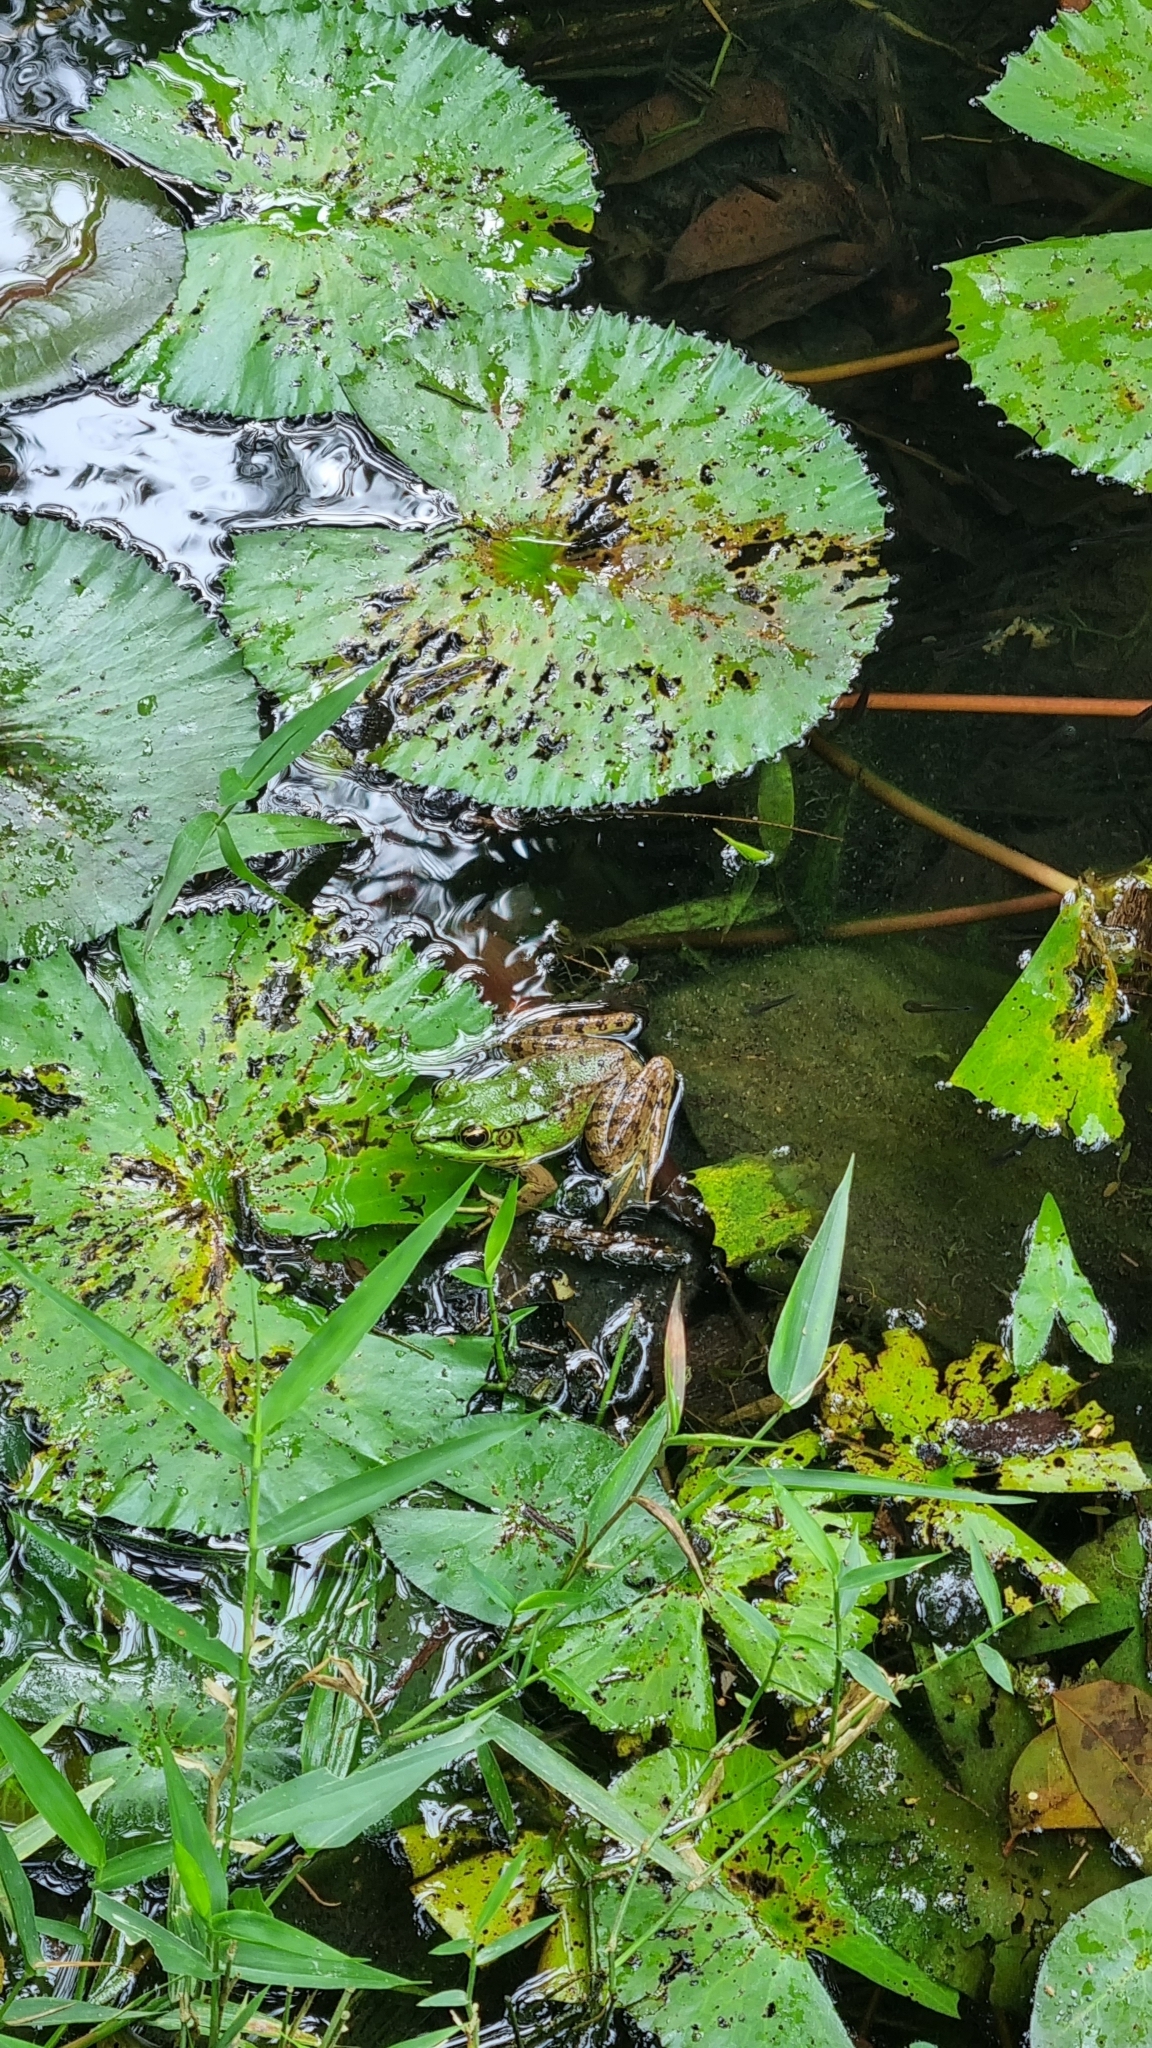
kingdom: Animalia
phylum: Chordata
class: Amphibia
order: Anura
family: Ranidae
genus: Lithobates
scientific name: Lithobates vaillanti
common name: Vaillant's frog
